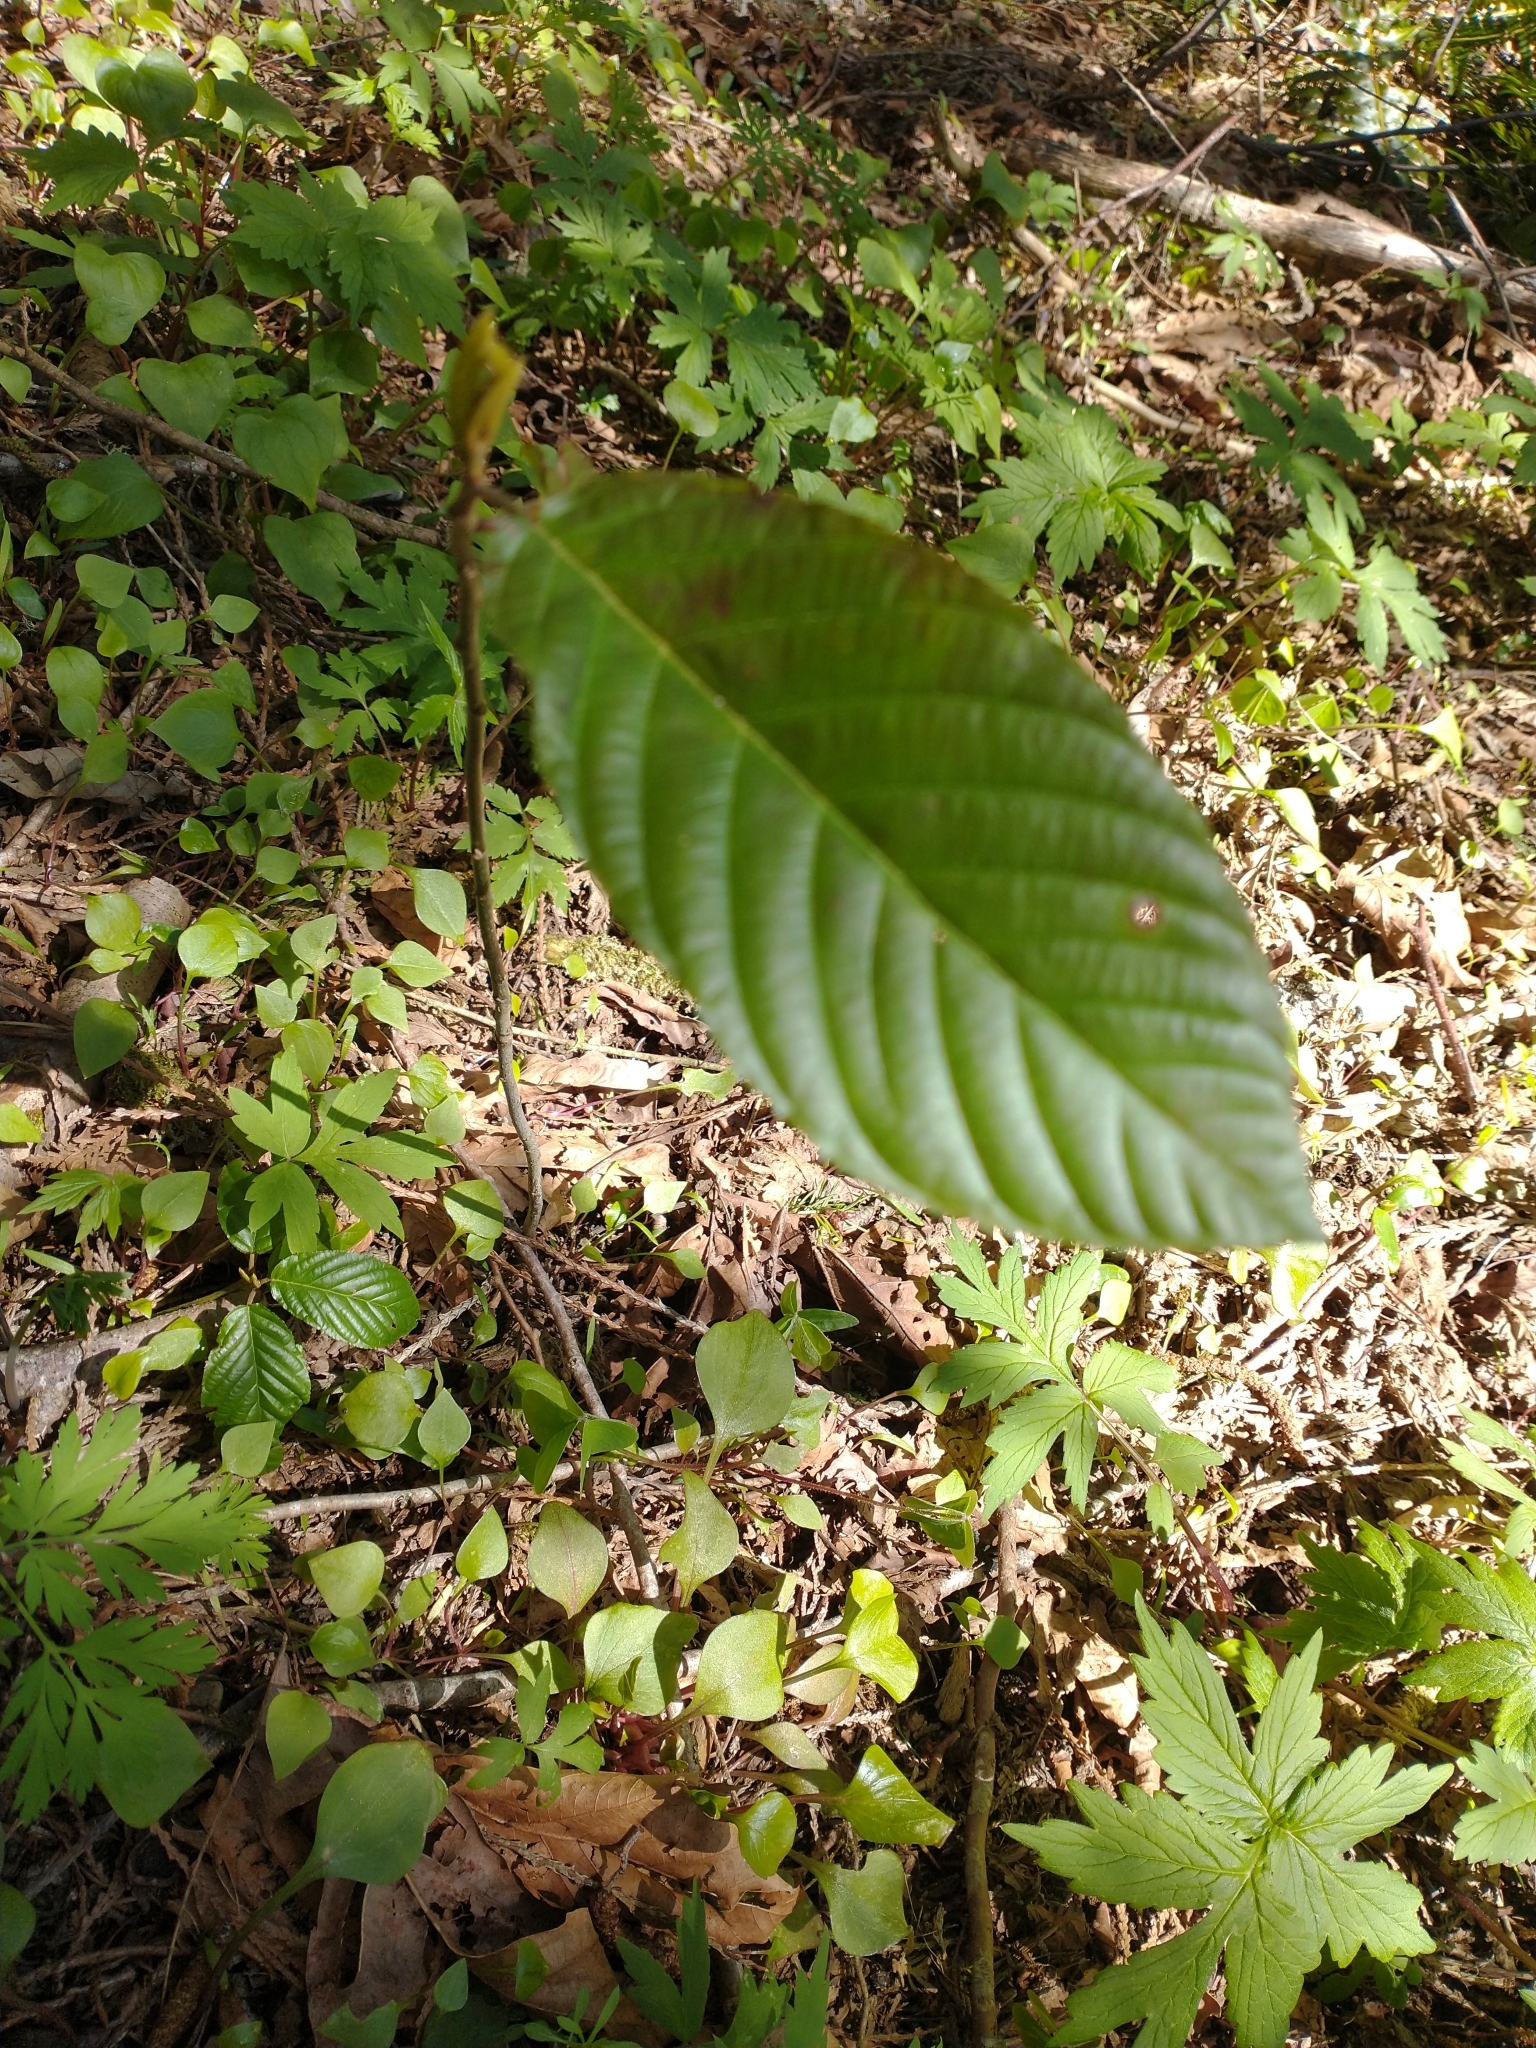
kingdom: Plantae
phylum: Tracheophyta
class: Magnoliopsida
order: Rosales
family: Rhamnaceae
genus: Frangula
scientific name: Frangula purshiana
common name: Cascara buckthorn
